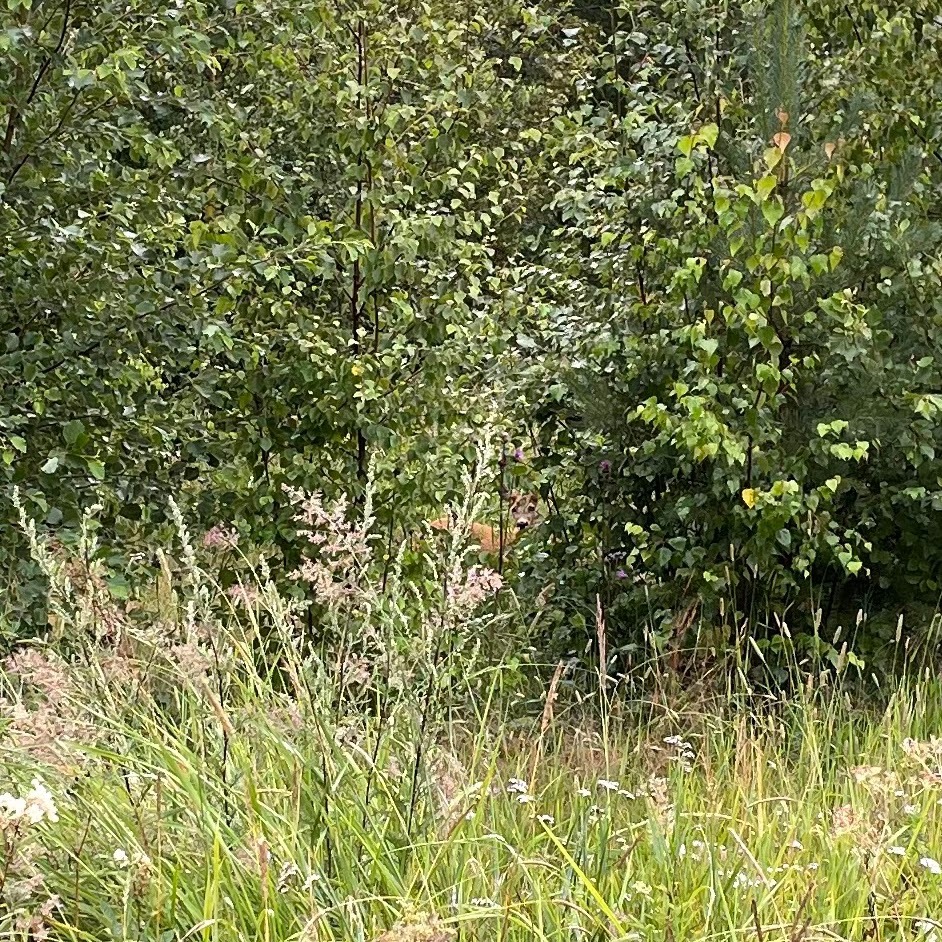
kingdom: Animalia
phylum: Chordata
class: Mammalia
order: Artiodactyla
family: Cervidae
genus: Capreolus
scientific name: Capreolus capreolus
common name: Western roe deer
